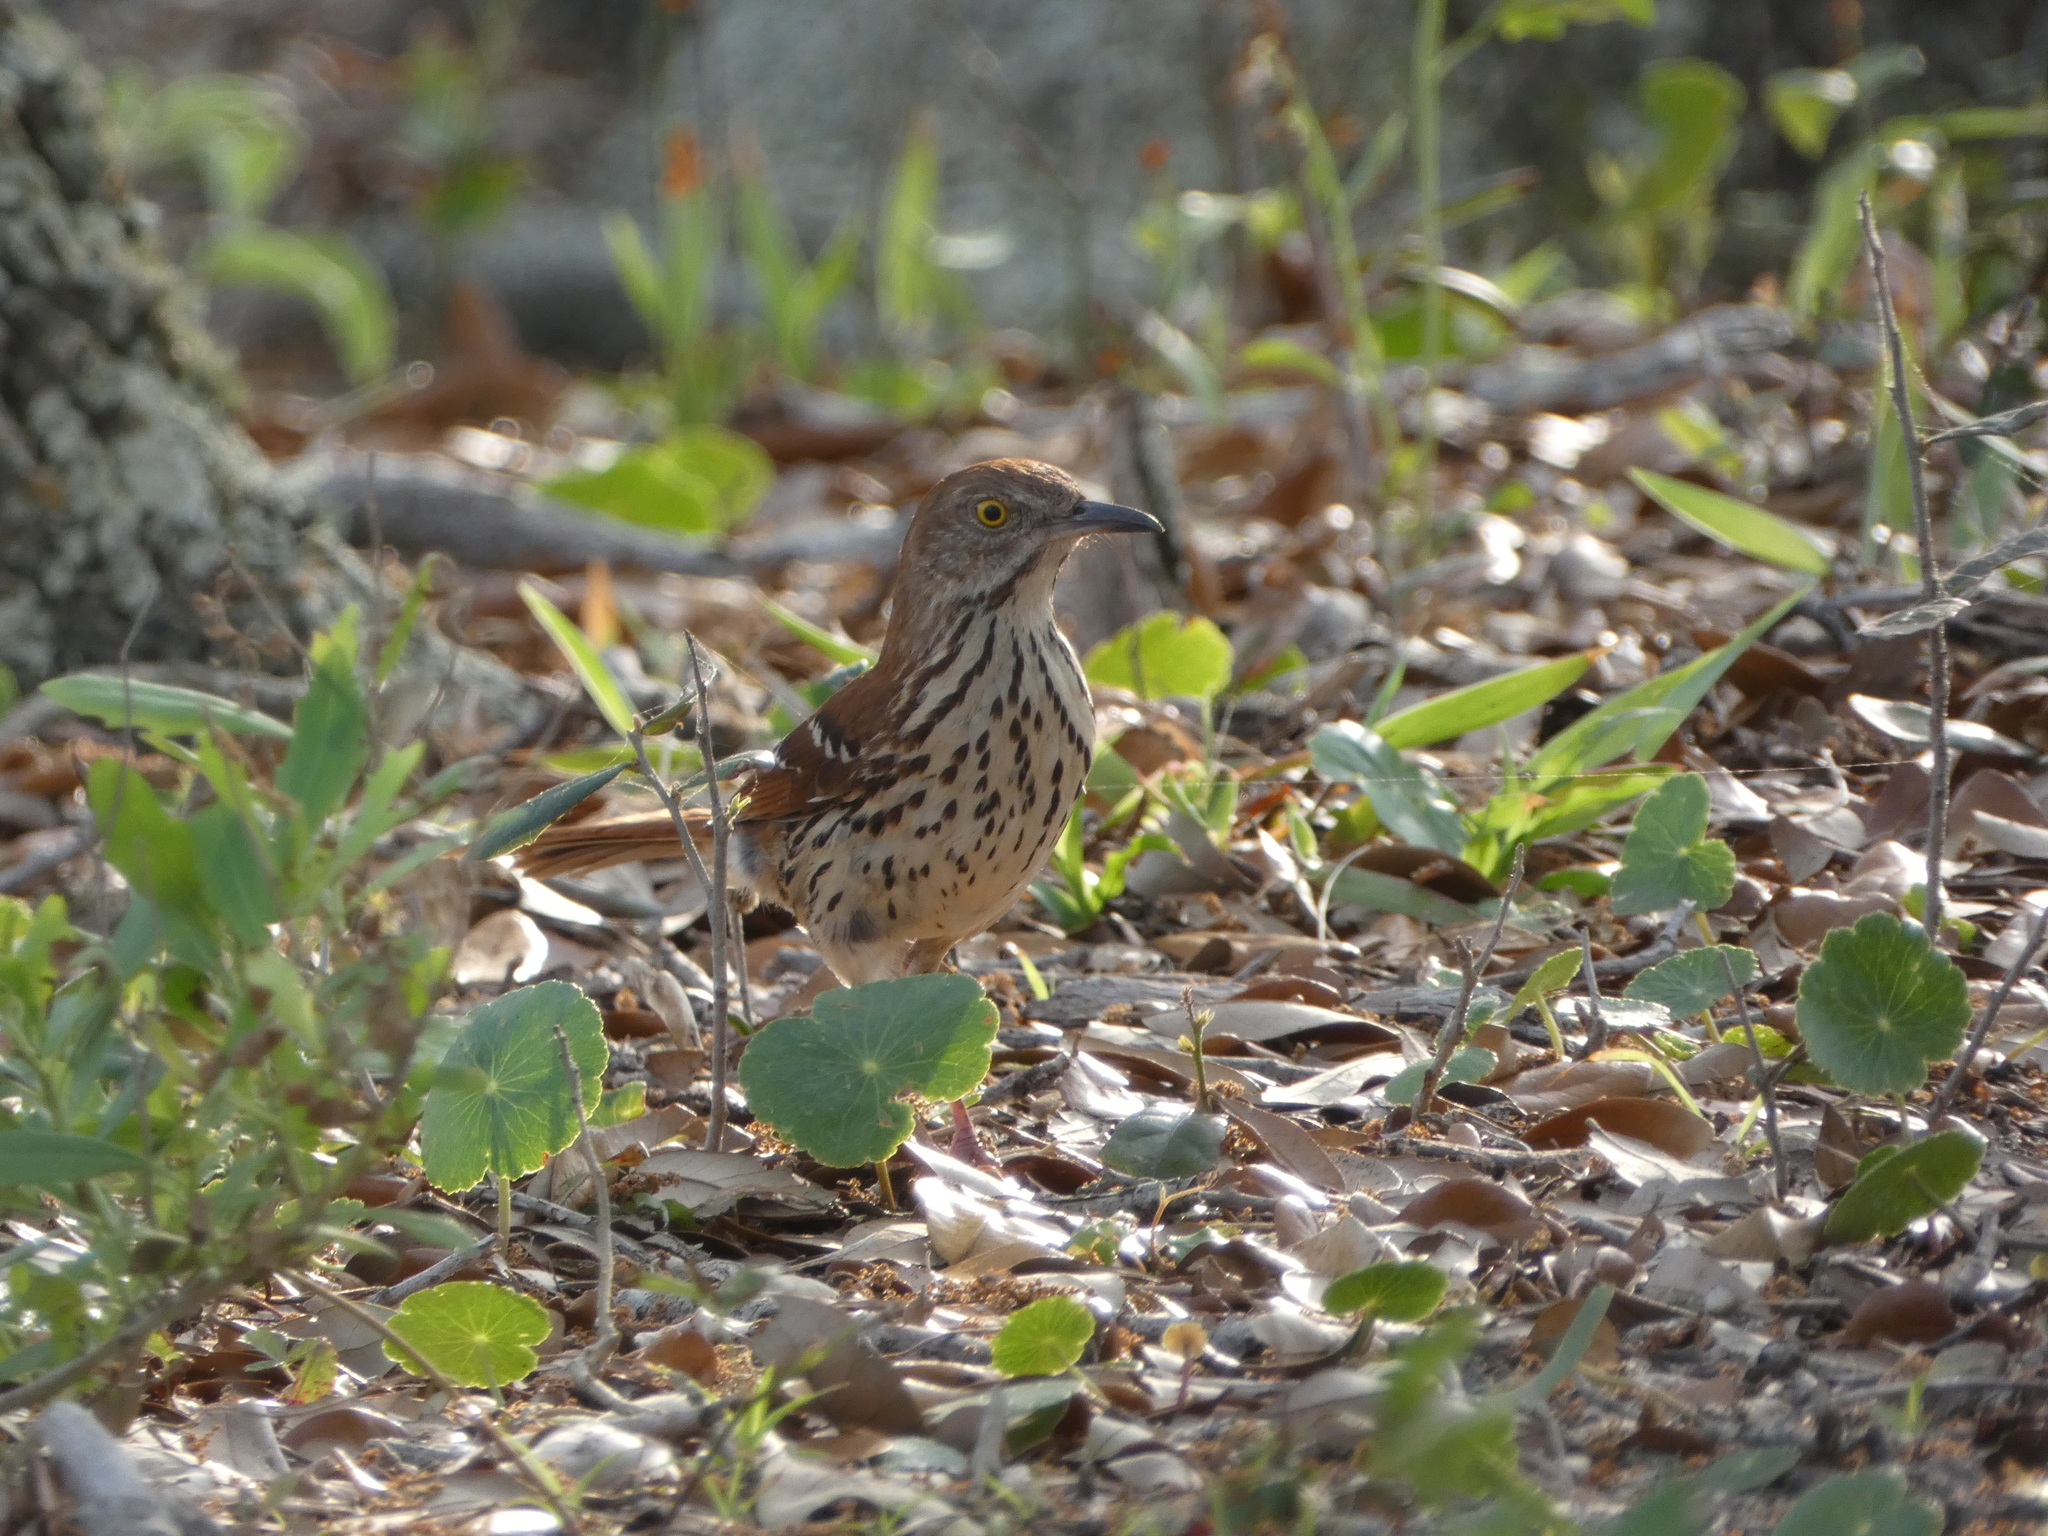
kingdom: Animalia
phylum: Chordata
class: Aves
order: Passeriformes
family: Mimidae
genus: Toxostoma
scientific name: Toxostoma rufum
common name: Brown thrasher
